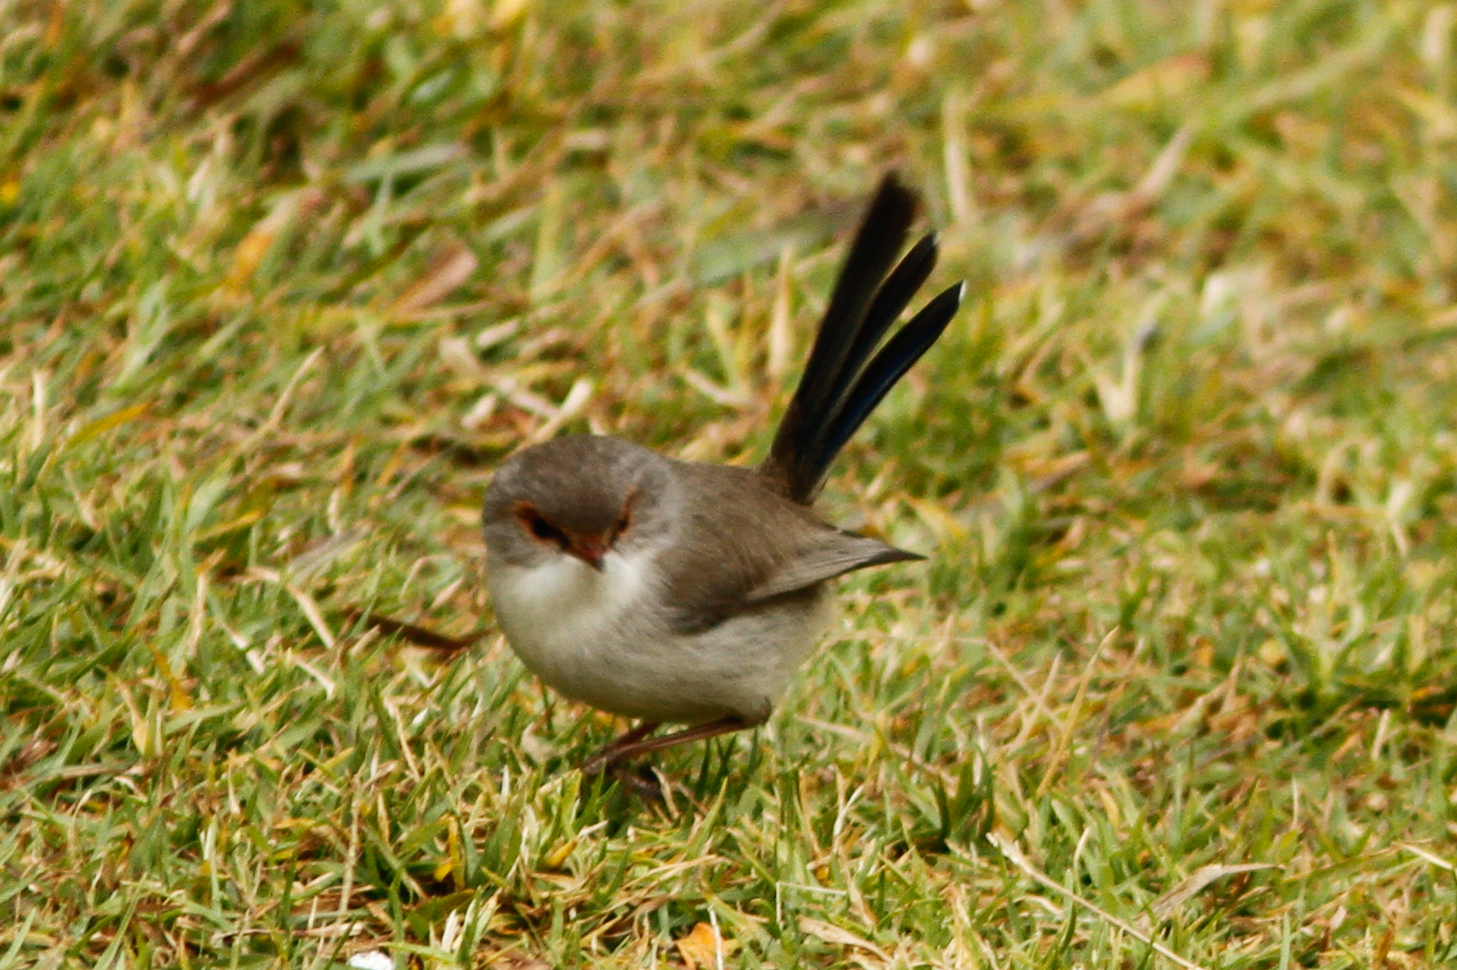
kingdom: Animalia
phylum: Chordata
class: Aves
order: Passeriformes
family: Maluridae
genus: Malurus
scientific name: Malurus cyaneus
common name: Superb fairywren
